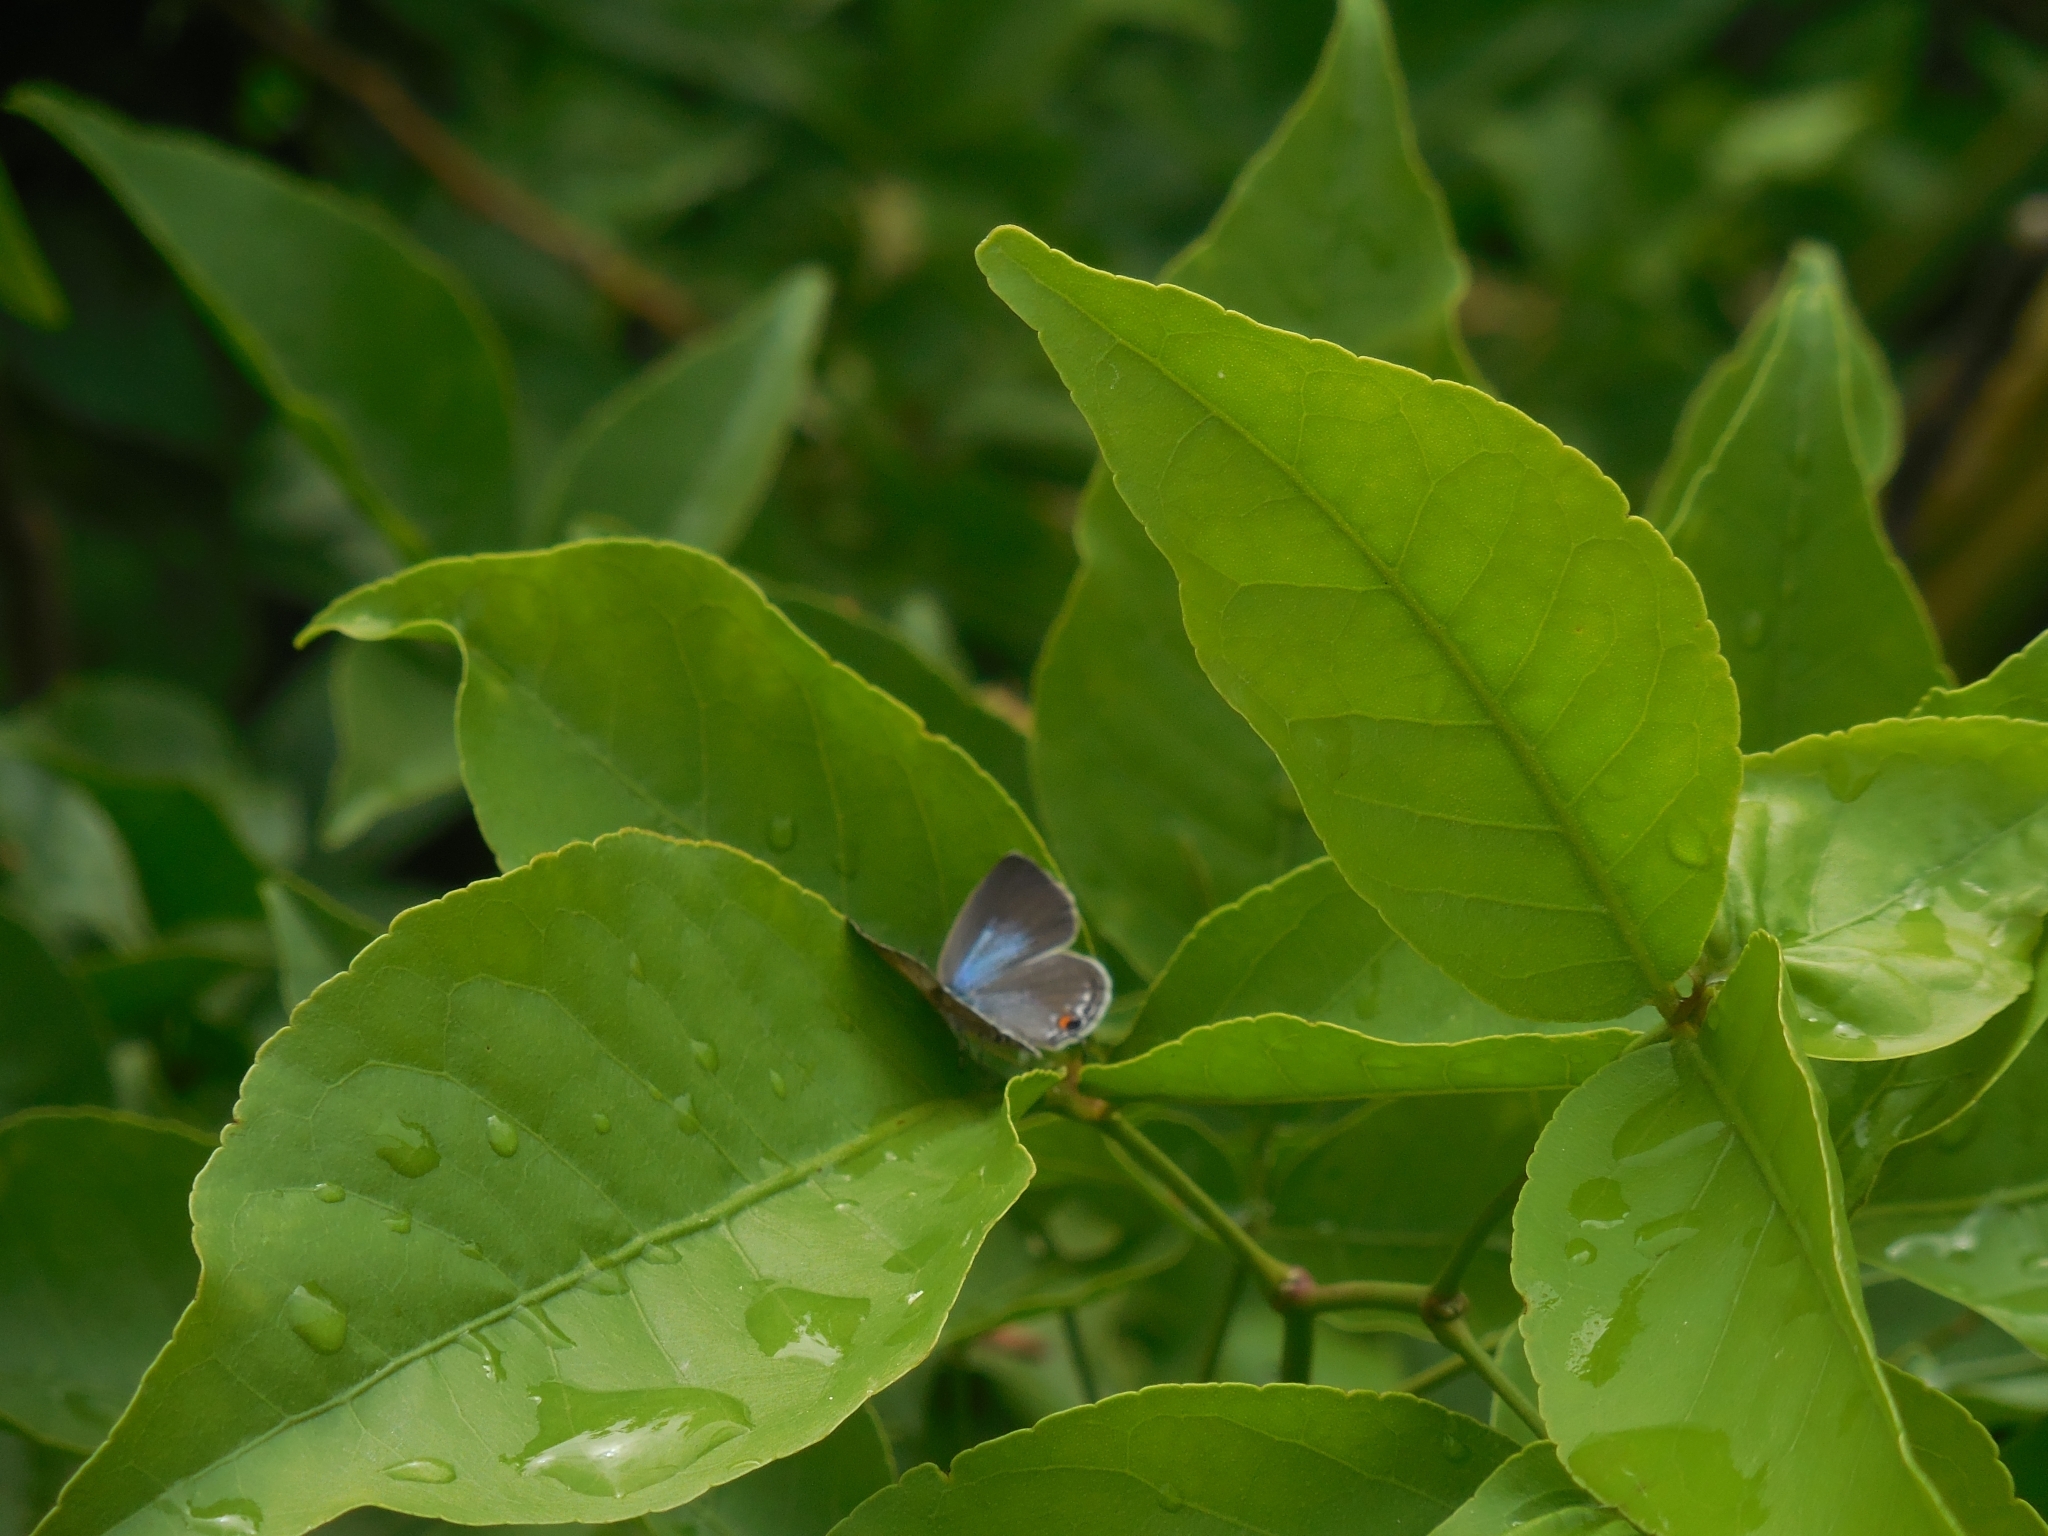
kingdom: Animalia
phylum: Arthropoda
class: Insecta
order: Lepidoptera
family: Lycaenidae
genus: Luthrodes
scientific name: Luthrodes pandava
